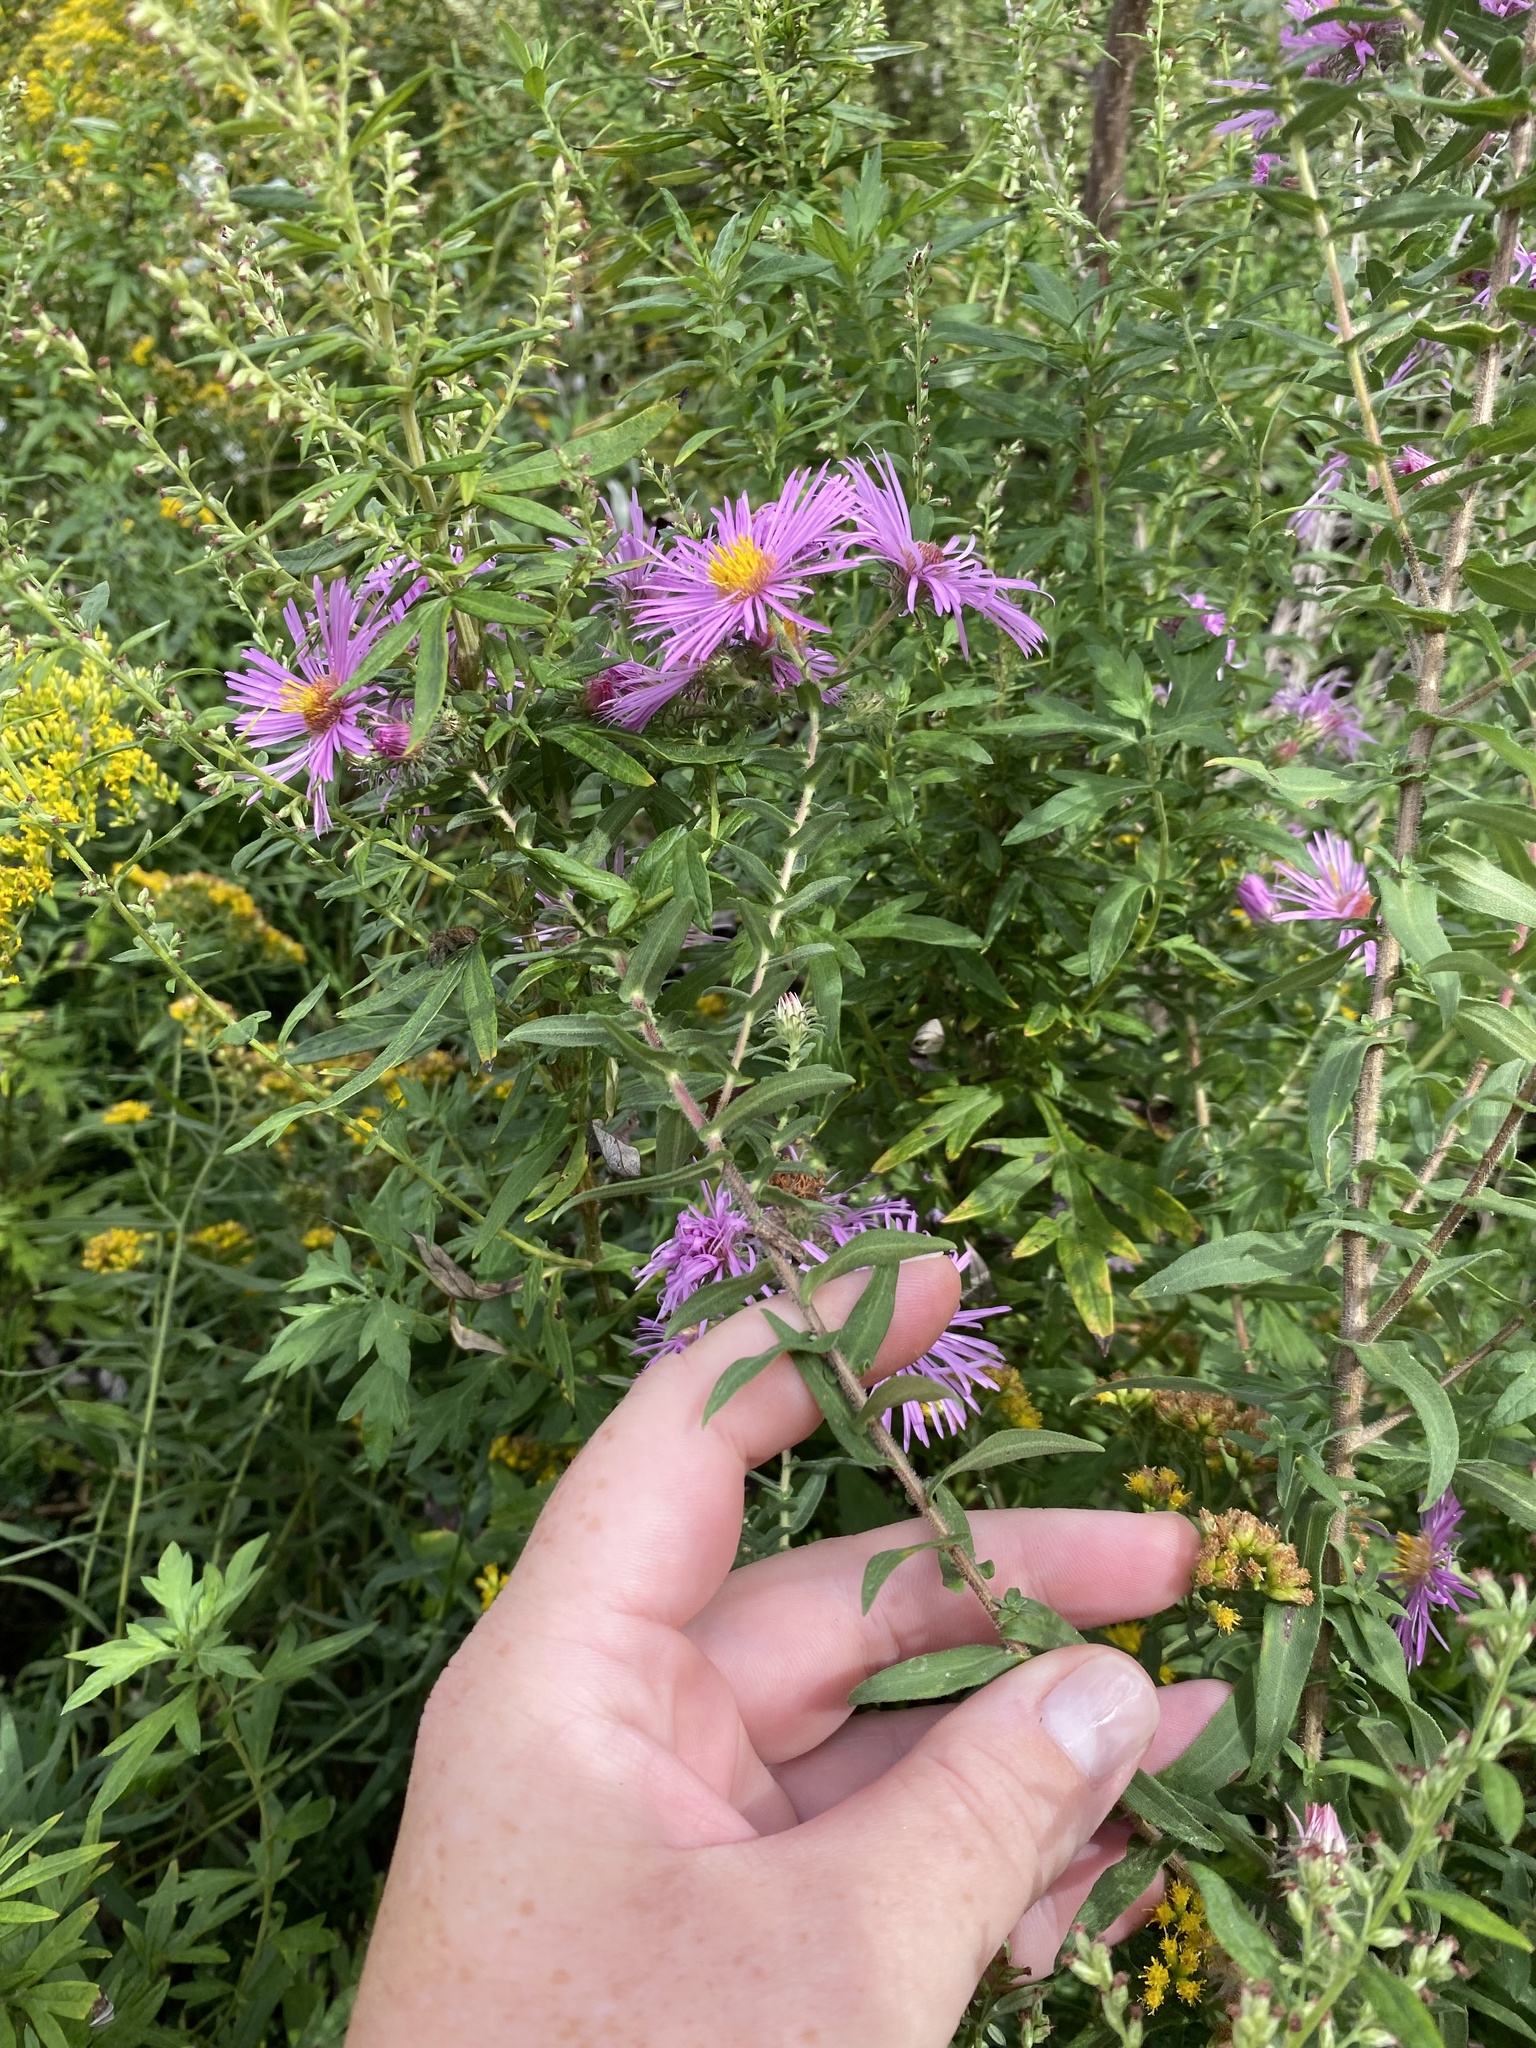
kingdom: Plantae
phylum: Tracheophyta
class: Magnoliopsida
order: Asterales
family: Asteraceae
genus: Symphyotrichum
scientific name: Symphyotrichum novae-angliae
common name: Michaelmas daisy
